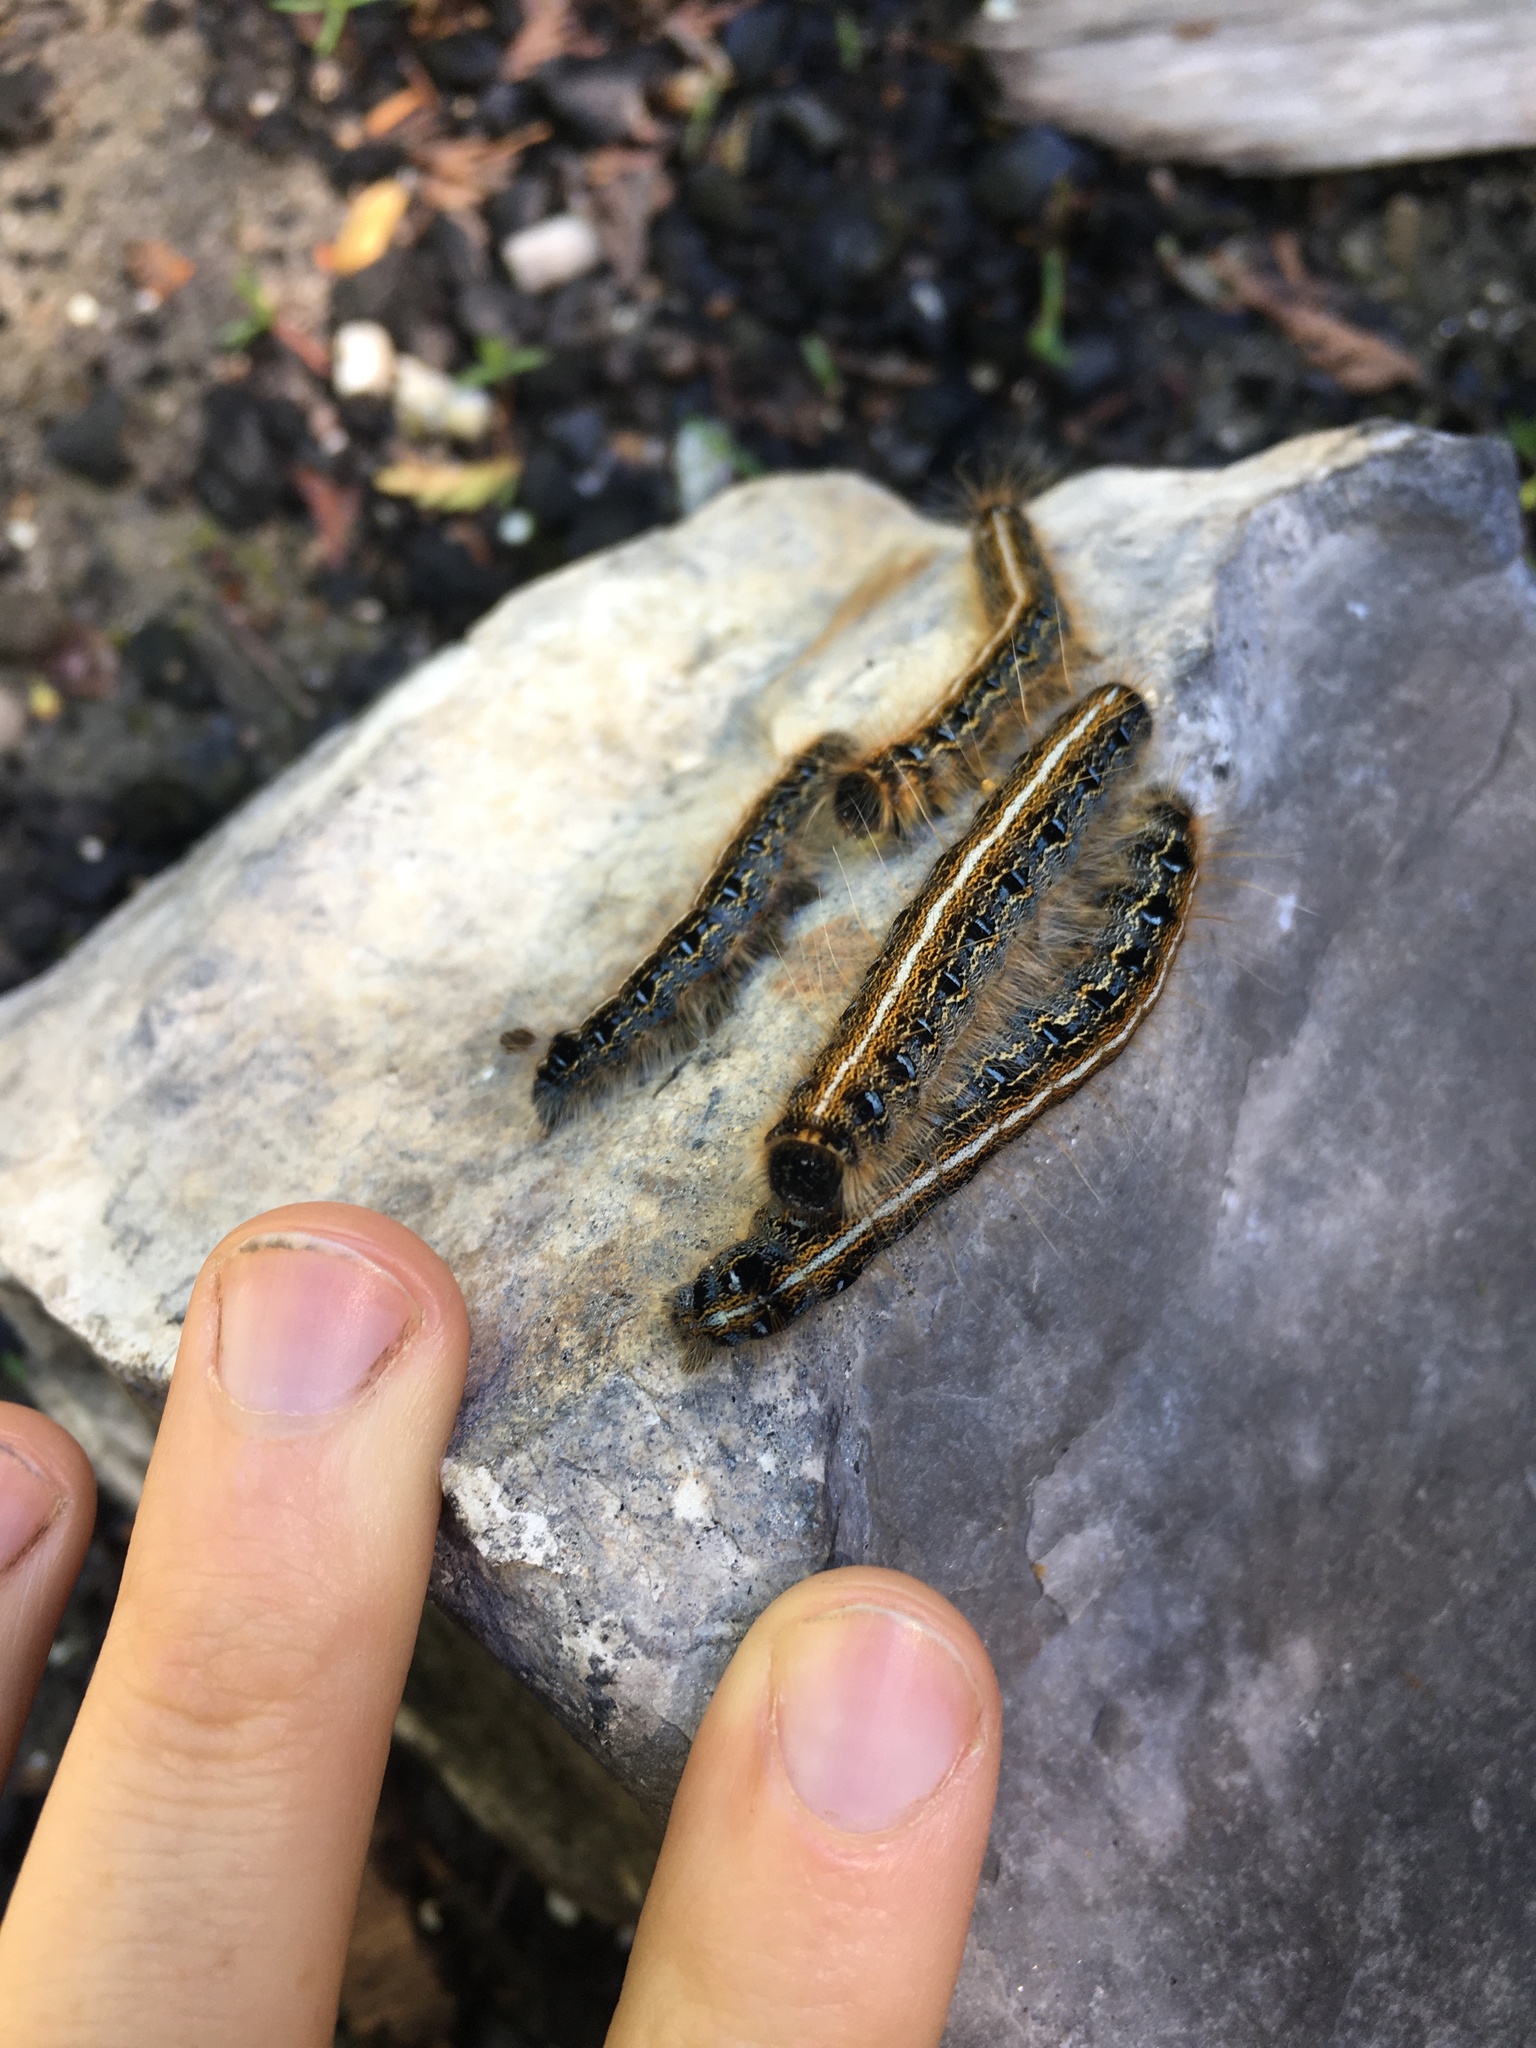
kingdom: Animalia
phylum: Arthropoda
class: Insecta
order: Lepidoptera
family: Lasiocampidae
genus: Malacosoma
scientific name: Malacosoma americana
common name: Eastern tent caterpillar moth
